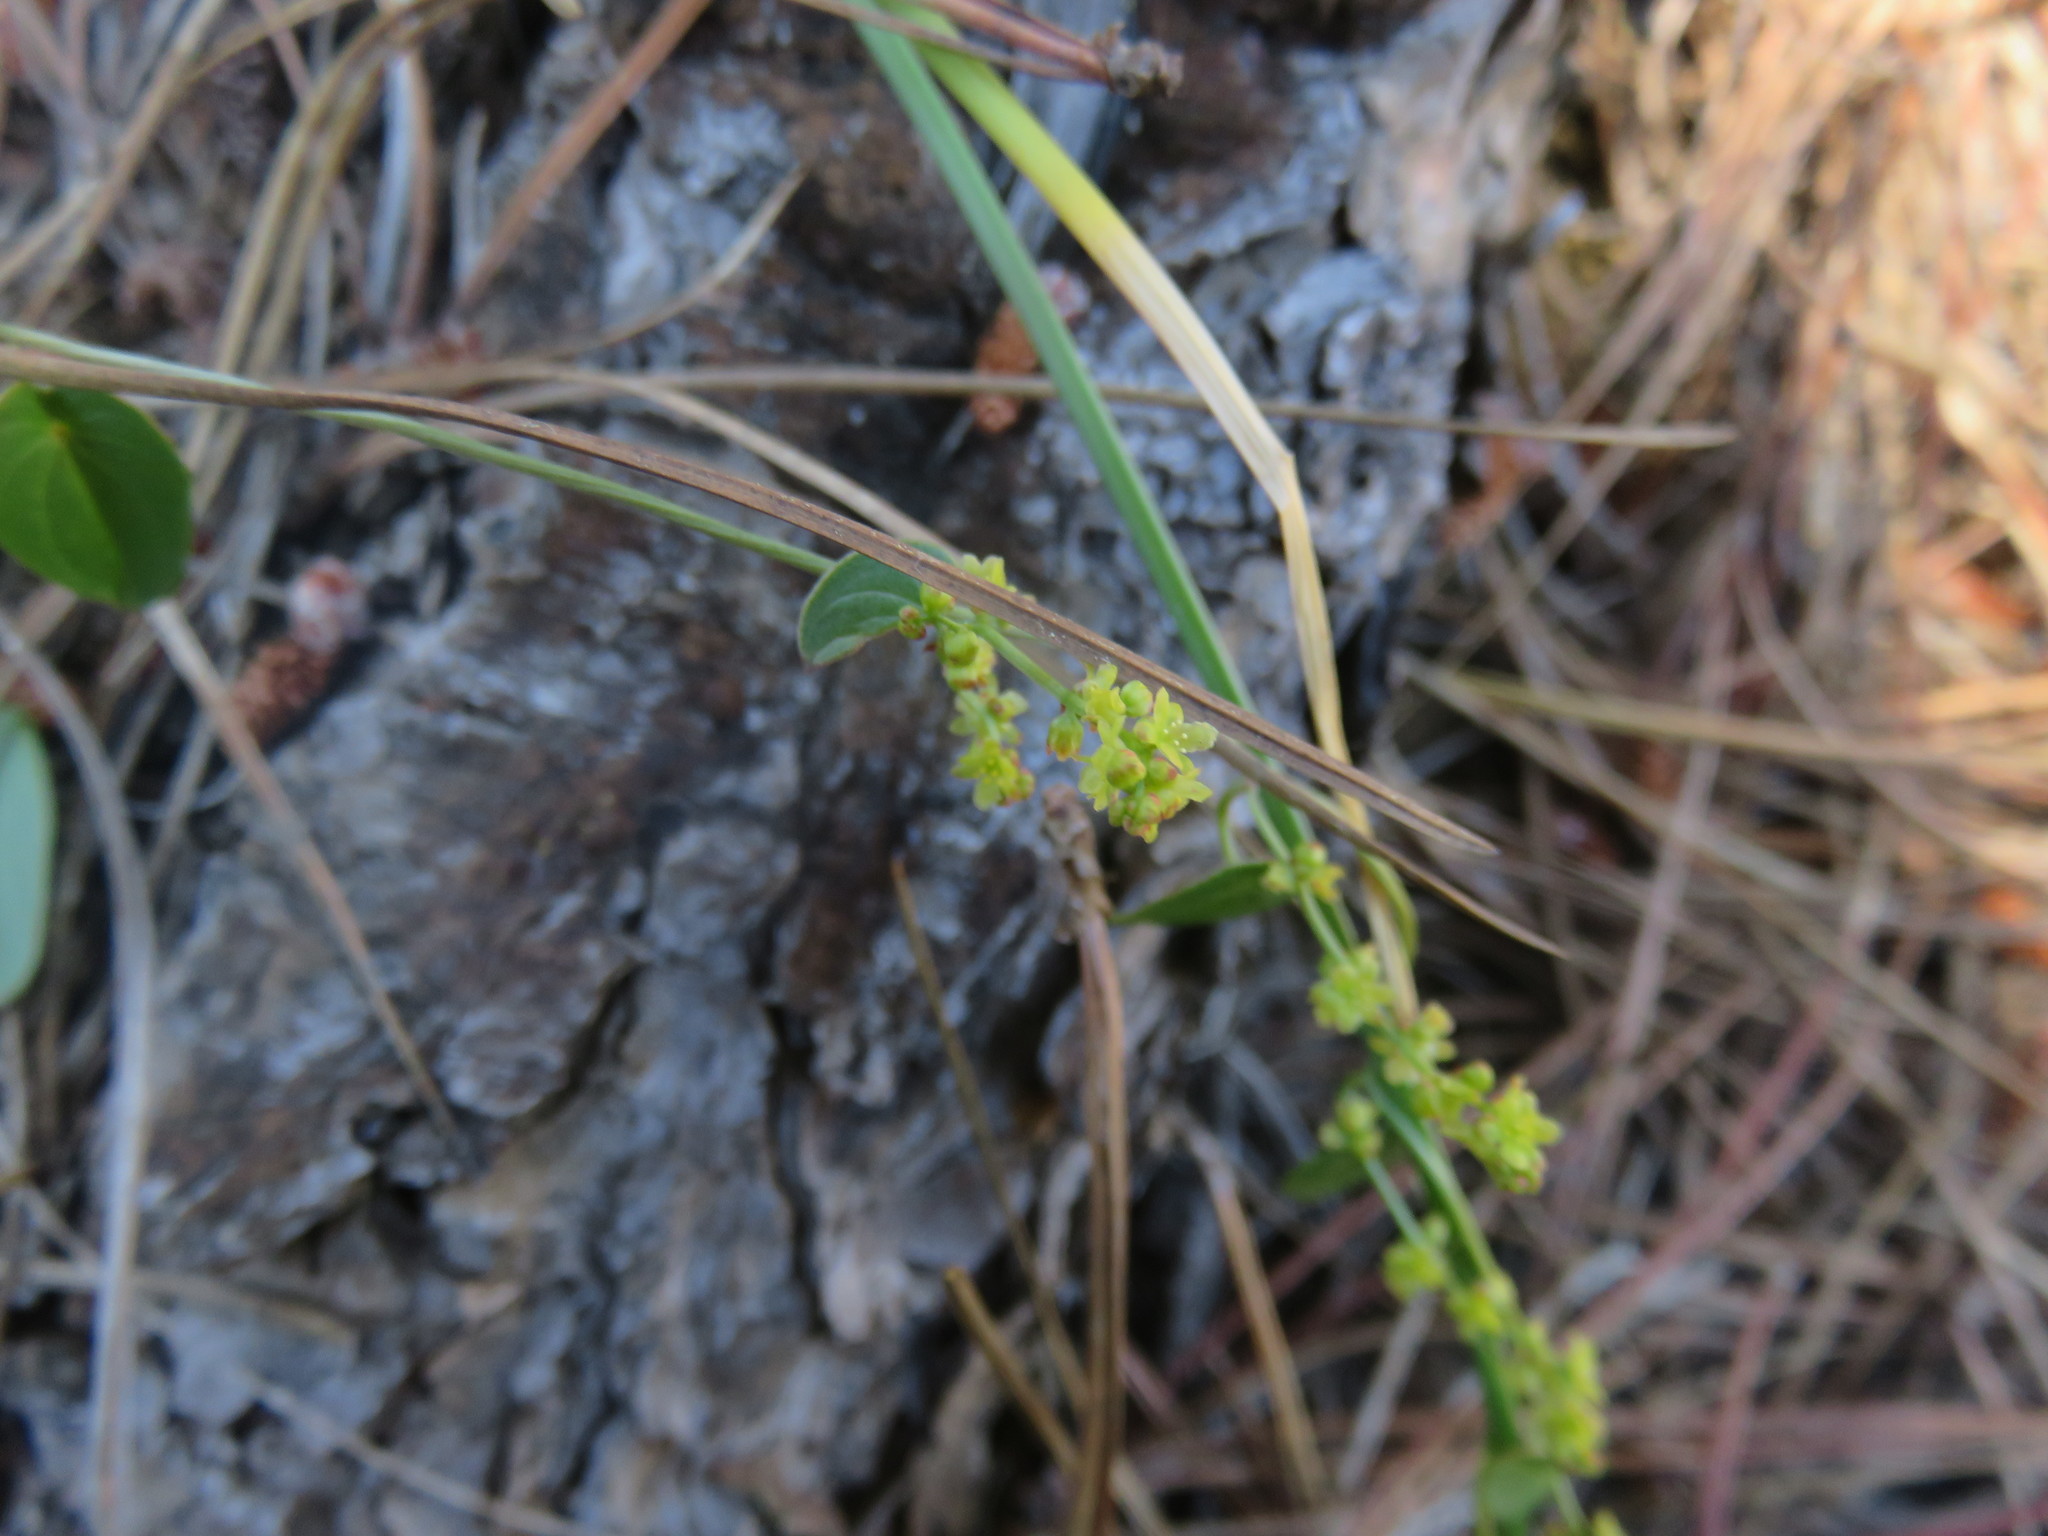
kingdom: Plantae
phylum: Tracheophyta
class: Liliopsida
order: Dioscoreales
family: Dioscoreaceae
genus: Dioscorea
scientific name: Dioscorea humifusa
